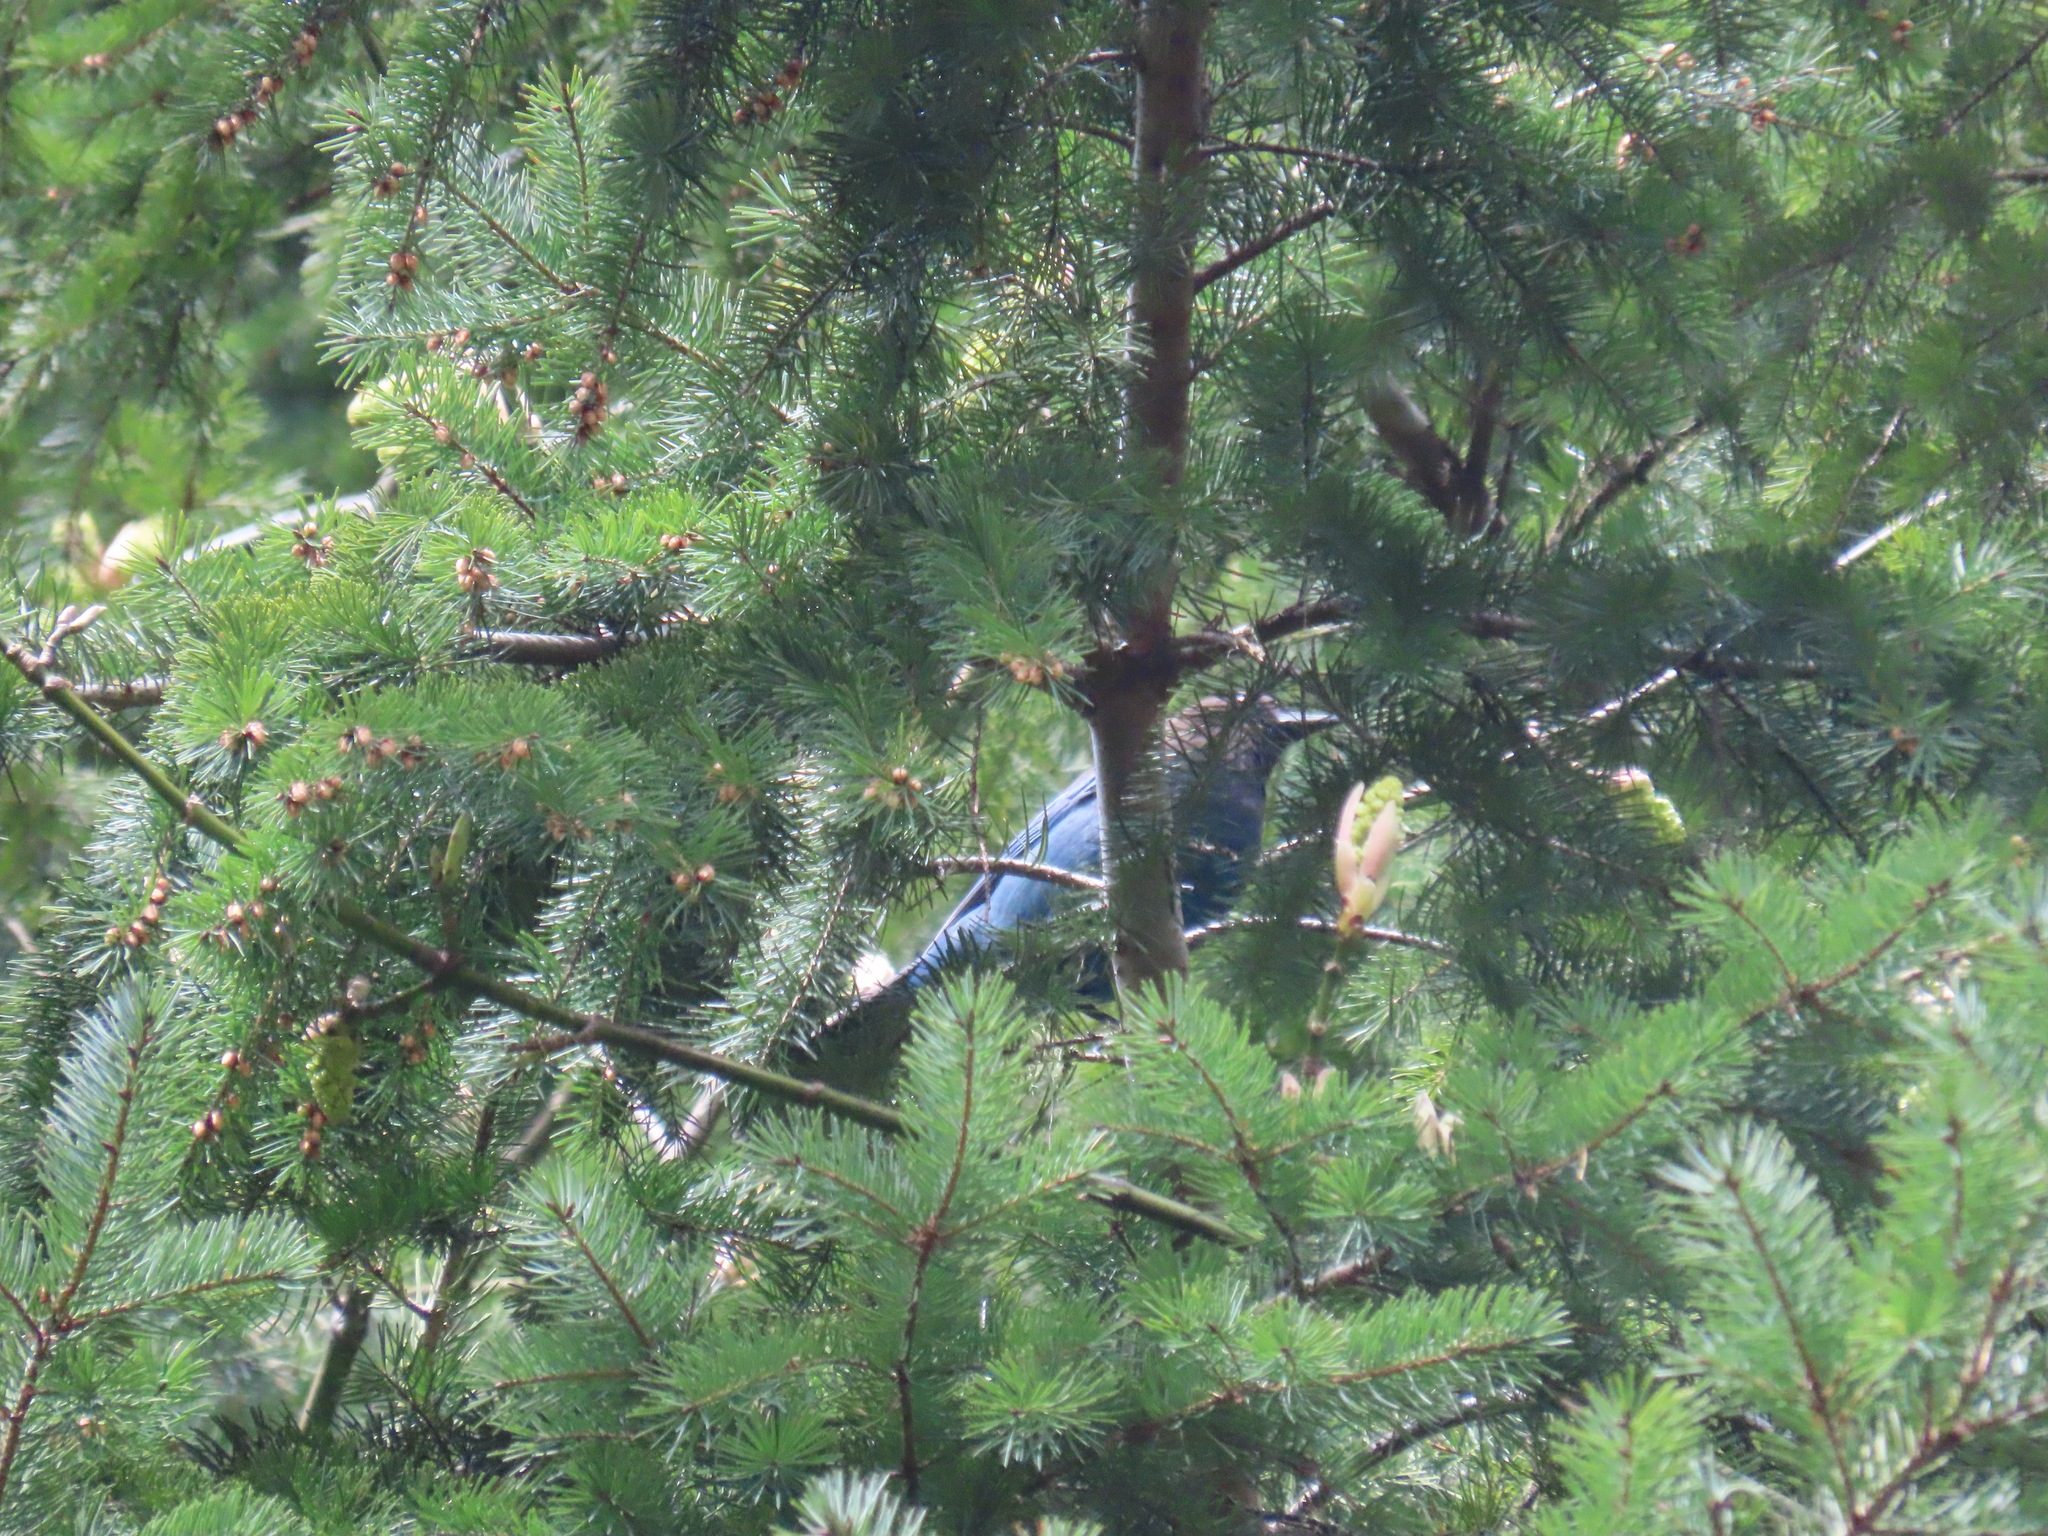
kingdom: Animalia
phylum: Chordata
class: Aves
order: Passeriformes
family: Corvidae
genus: Cyanocitta
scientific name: Cyanocitta stelleri
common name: Steller's jay
